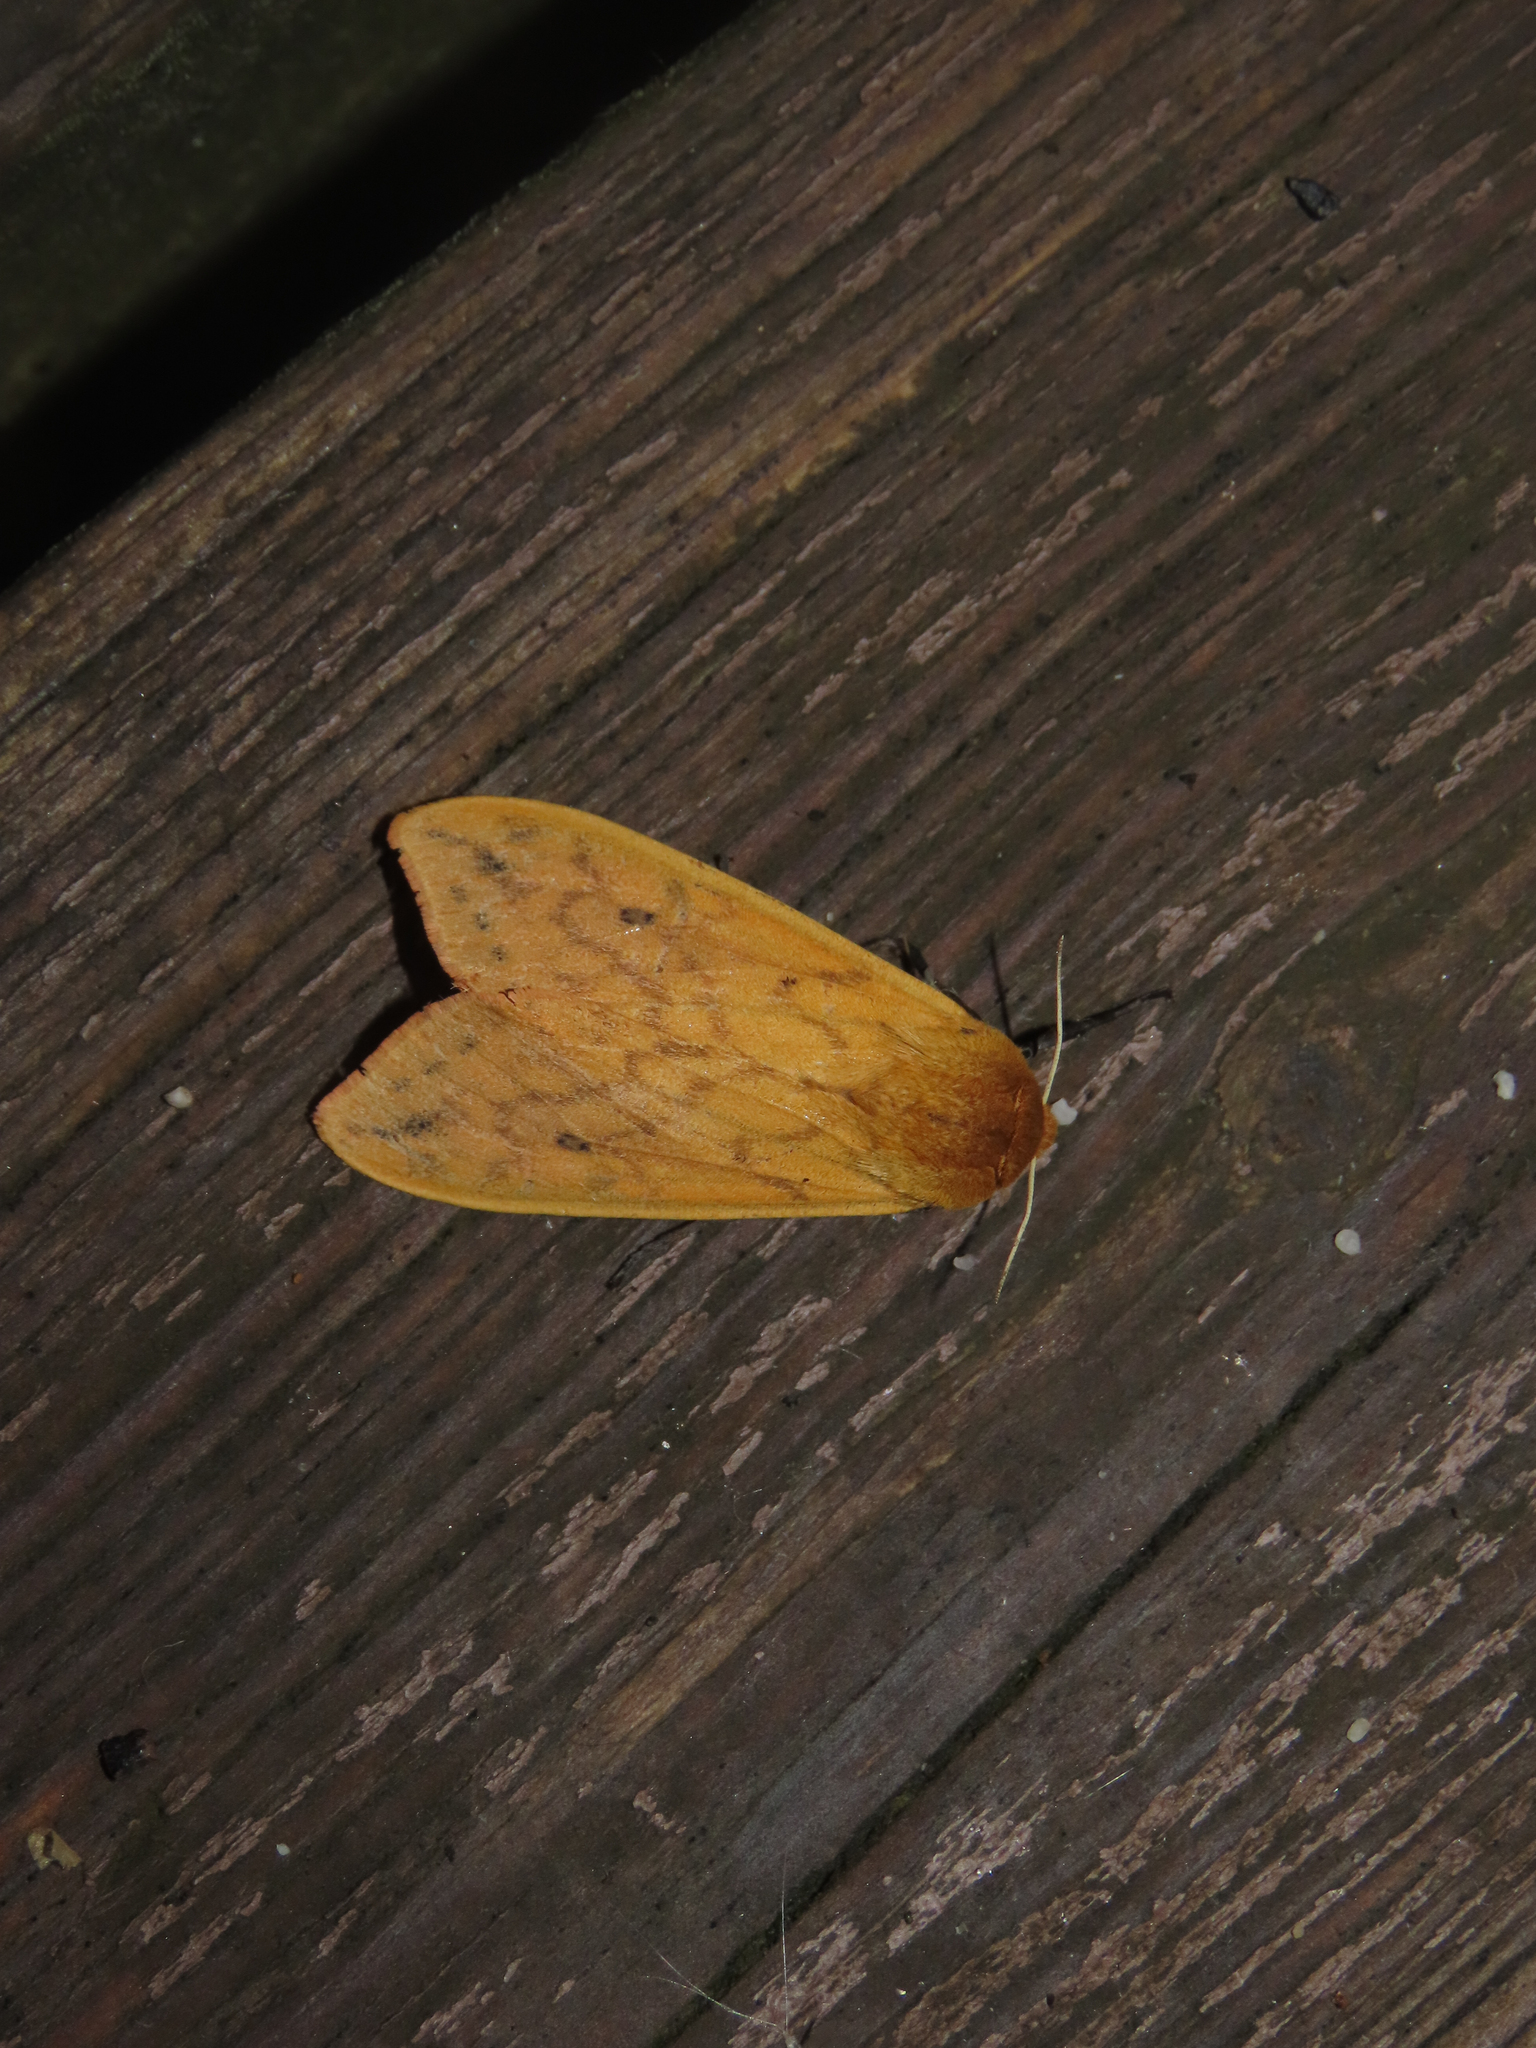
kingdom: Animalia
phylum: Arthropoda
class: Insecta
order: Lepidoptera
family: Erebidae
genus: Pyrrharctia
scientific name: Pyrrharctia isabella
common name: Isabella tiger moth
